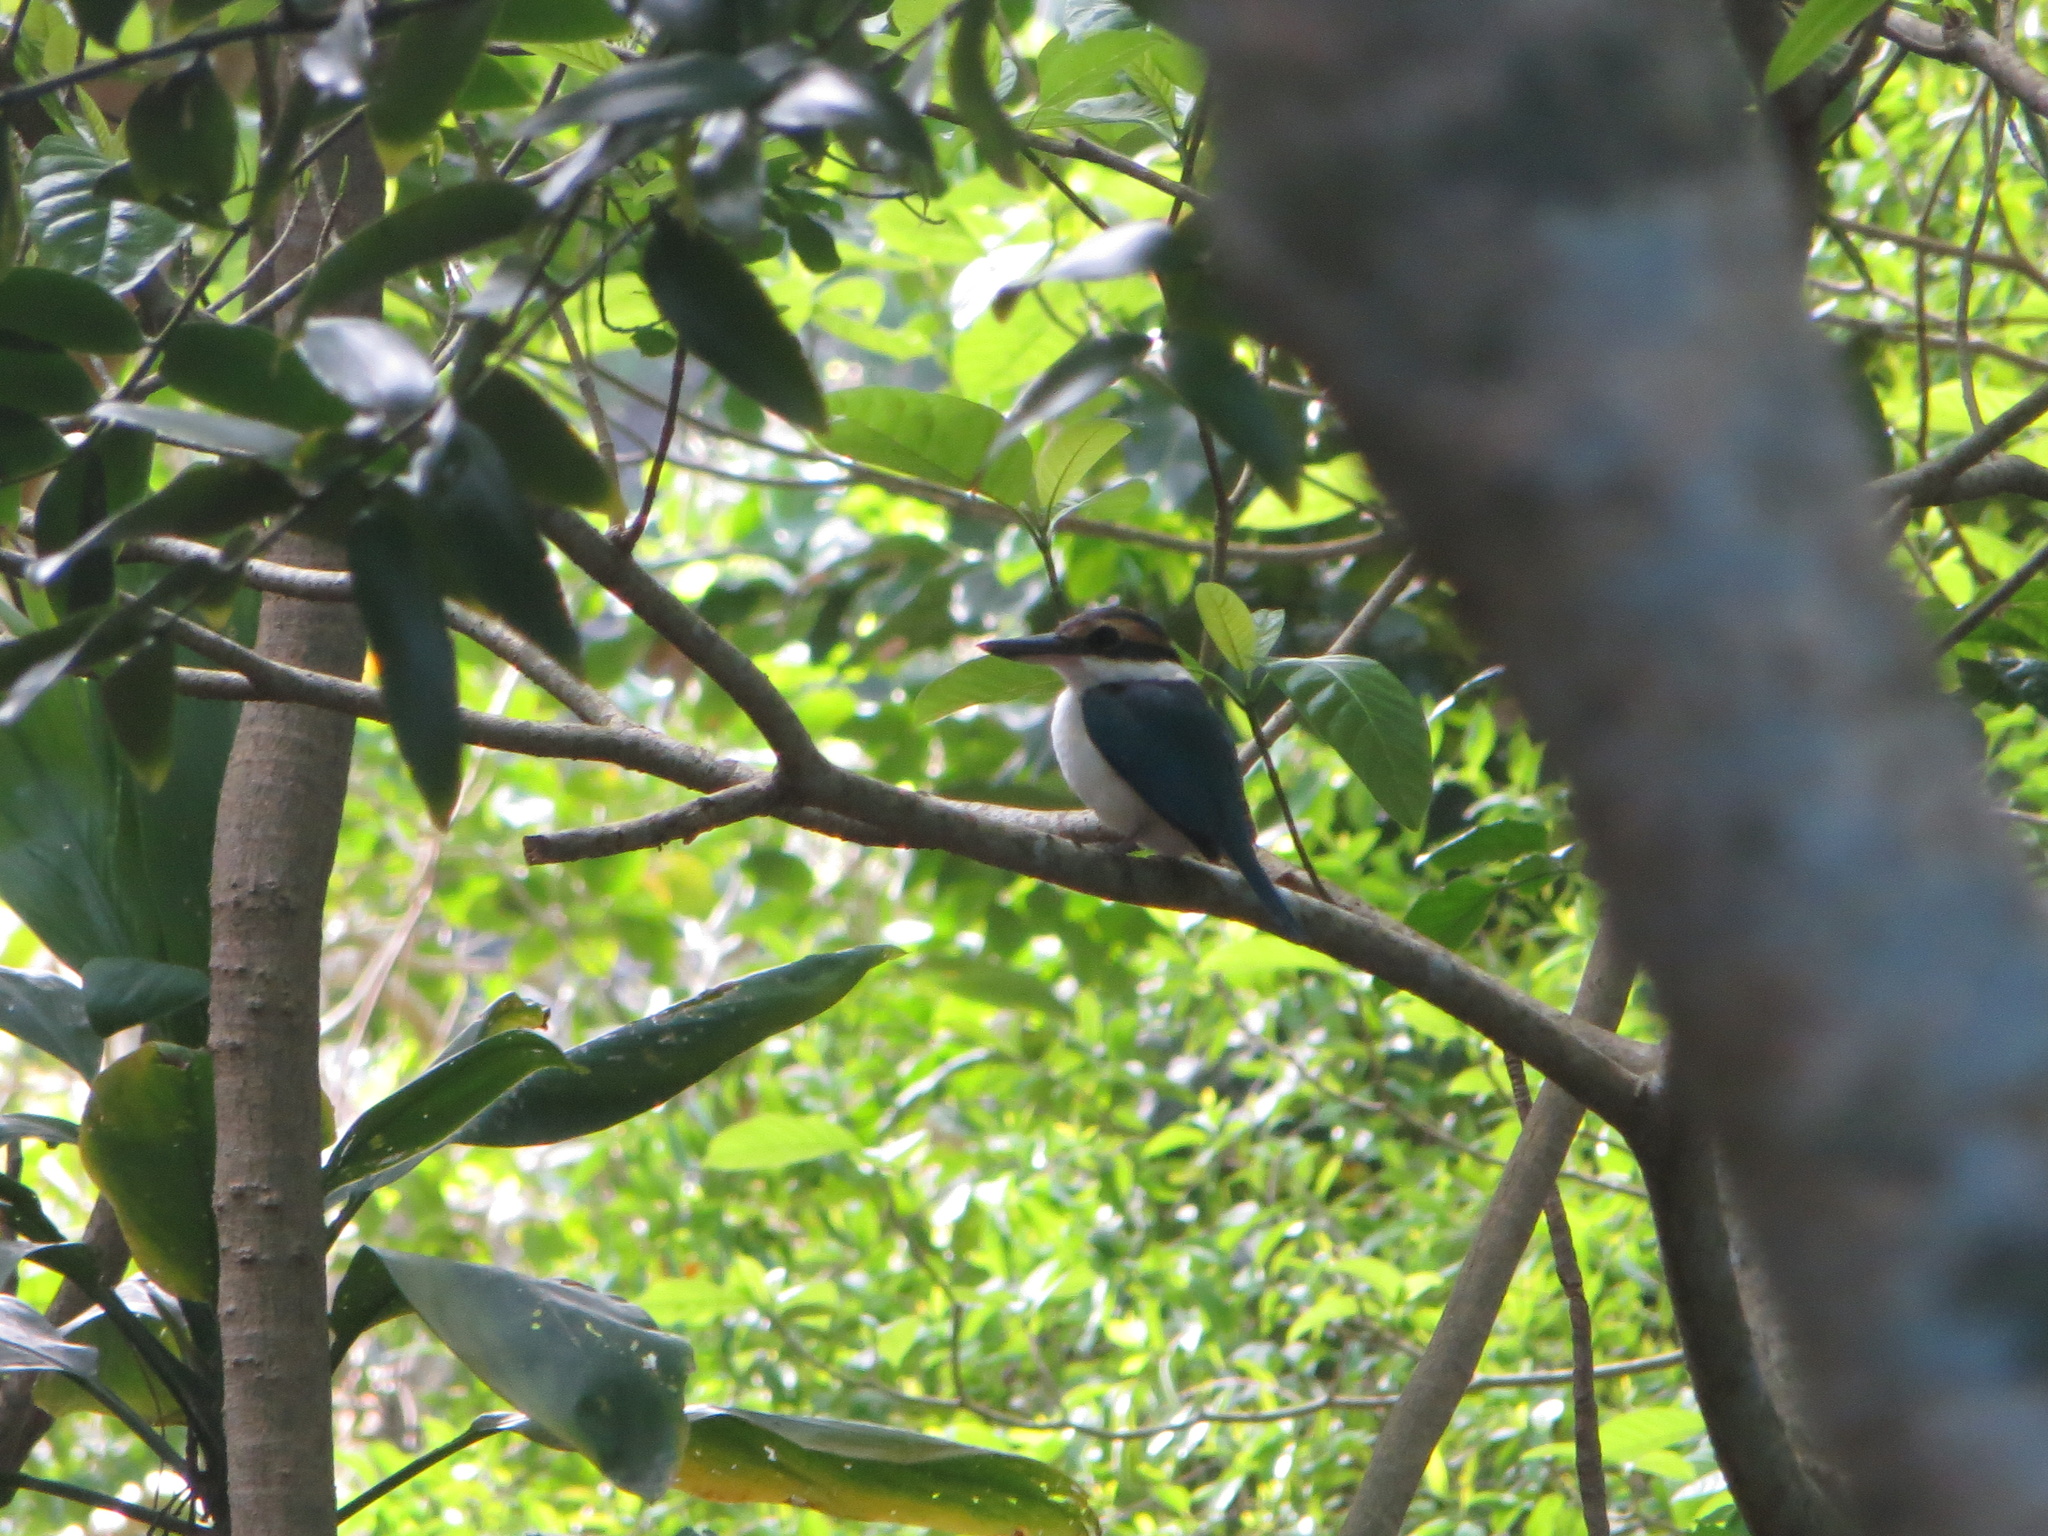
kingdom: Animalia
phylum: Chordata
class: Aves
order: Coraciiformes
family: Alcedinidae
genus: Todiramphus
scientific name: Todiramphus sacer
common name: Pacific kingfisher
